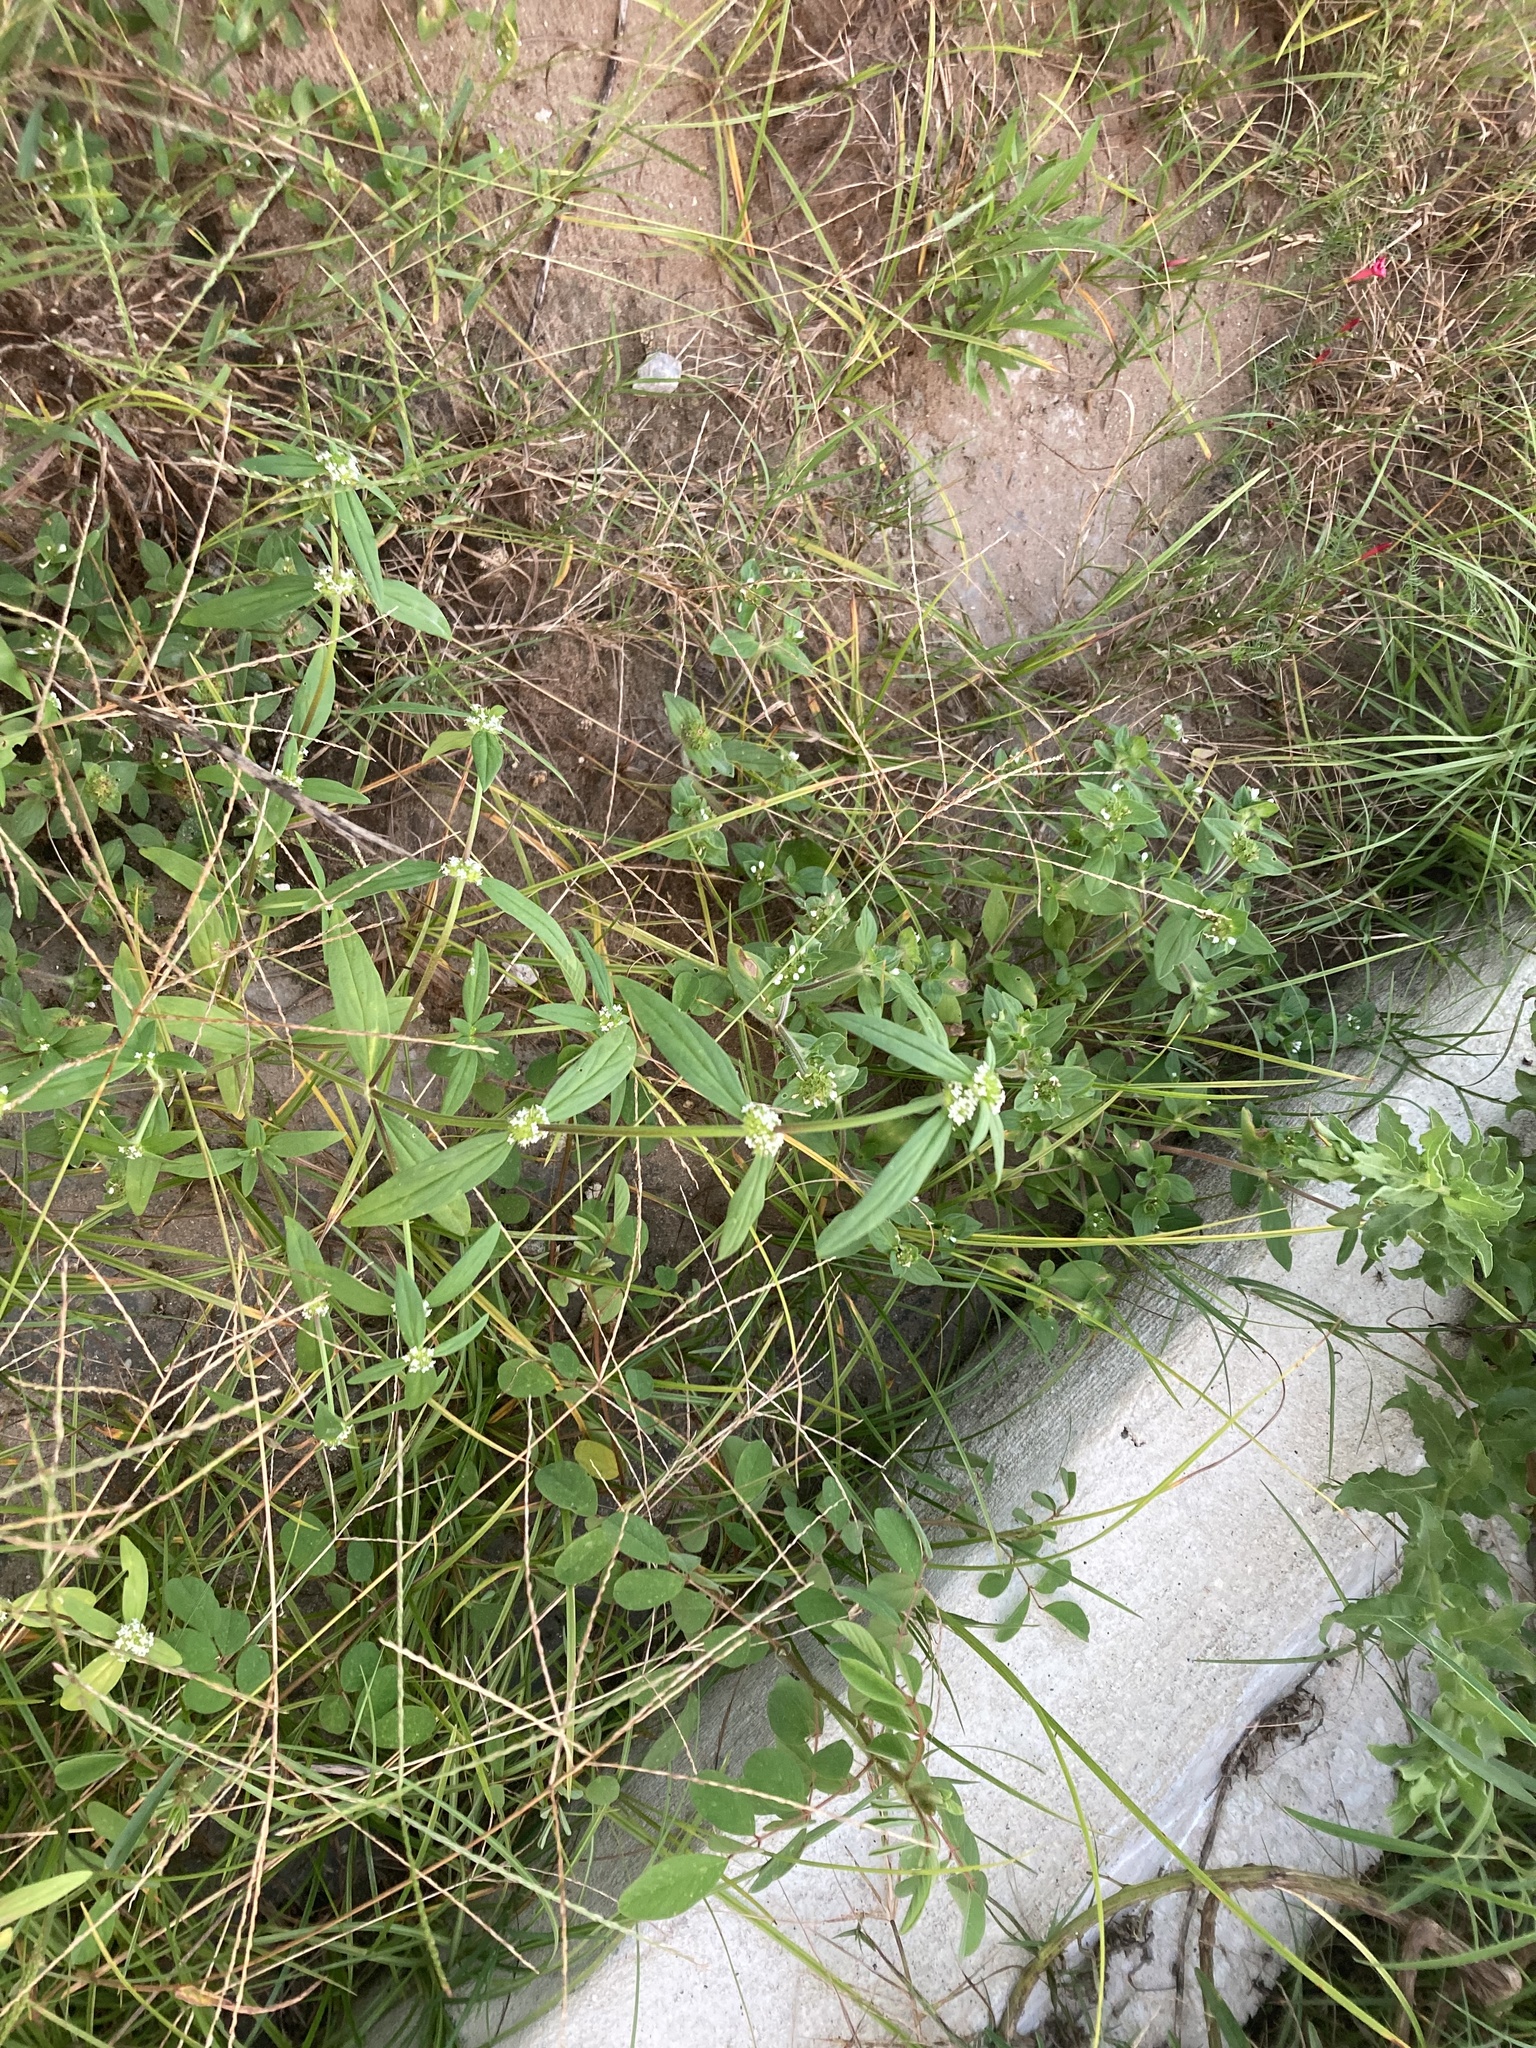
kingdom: Plantae
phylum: Tracheophyta
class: Magnoliopsida
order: Gentianales
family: Rubiaceae
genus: Mitracarpus
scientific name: Mitracarpus hirtus
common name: Tropical girdlepod
